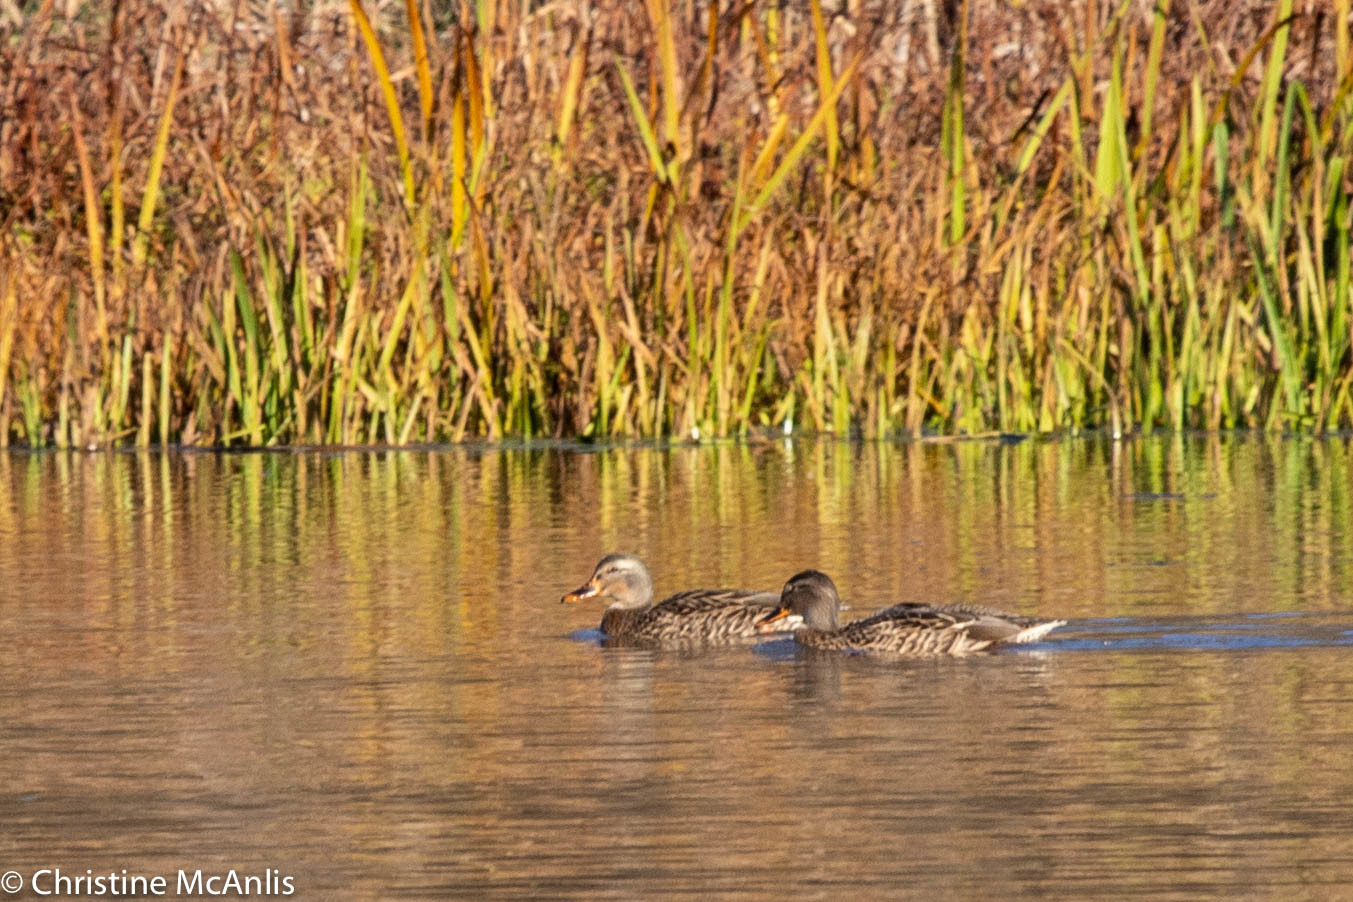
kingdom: Animalia
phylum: Chordata
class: Aves
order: Anseriformes
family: Anatidae
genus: Anas
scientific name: Anas platyrhynchos
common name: Mallard
